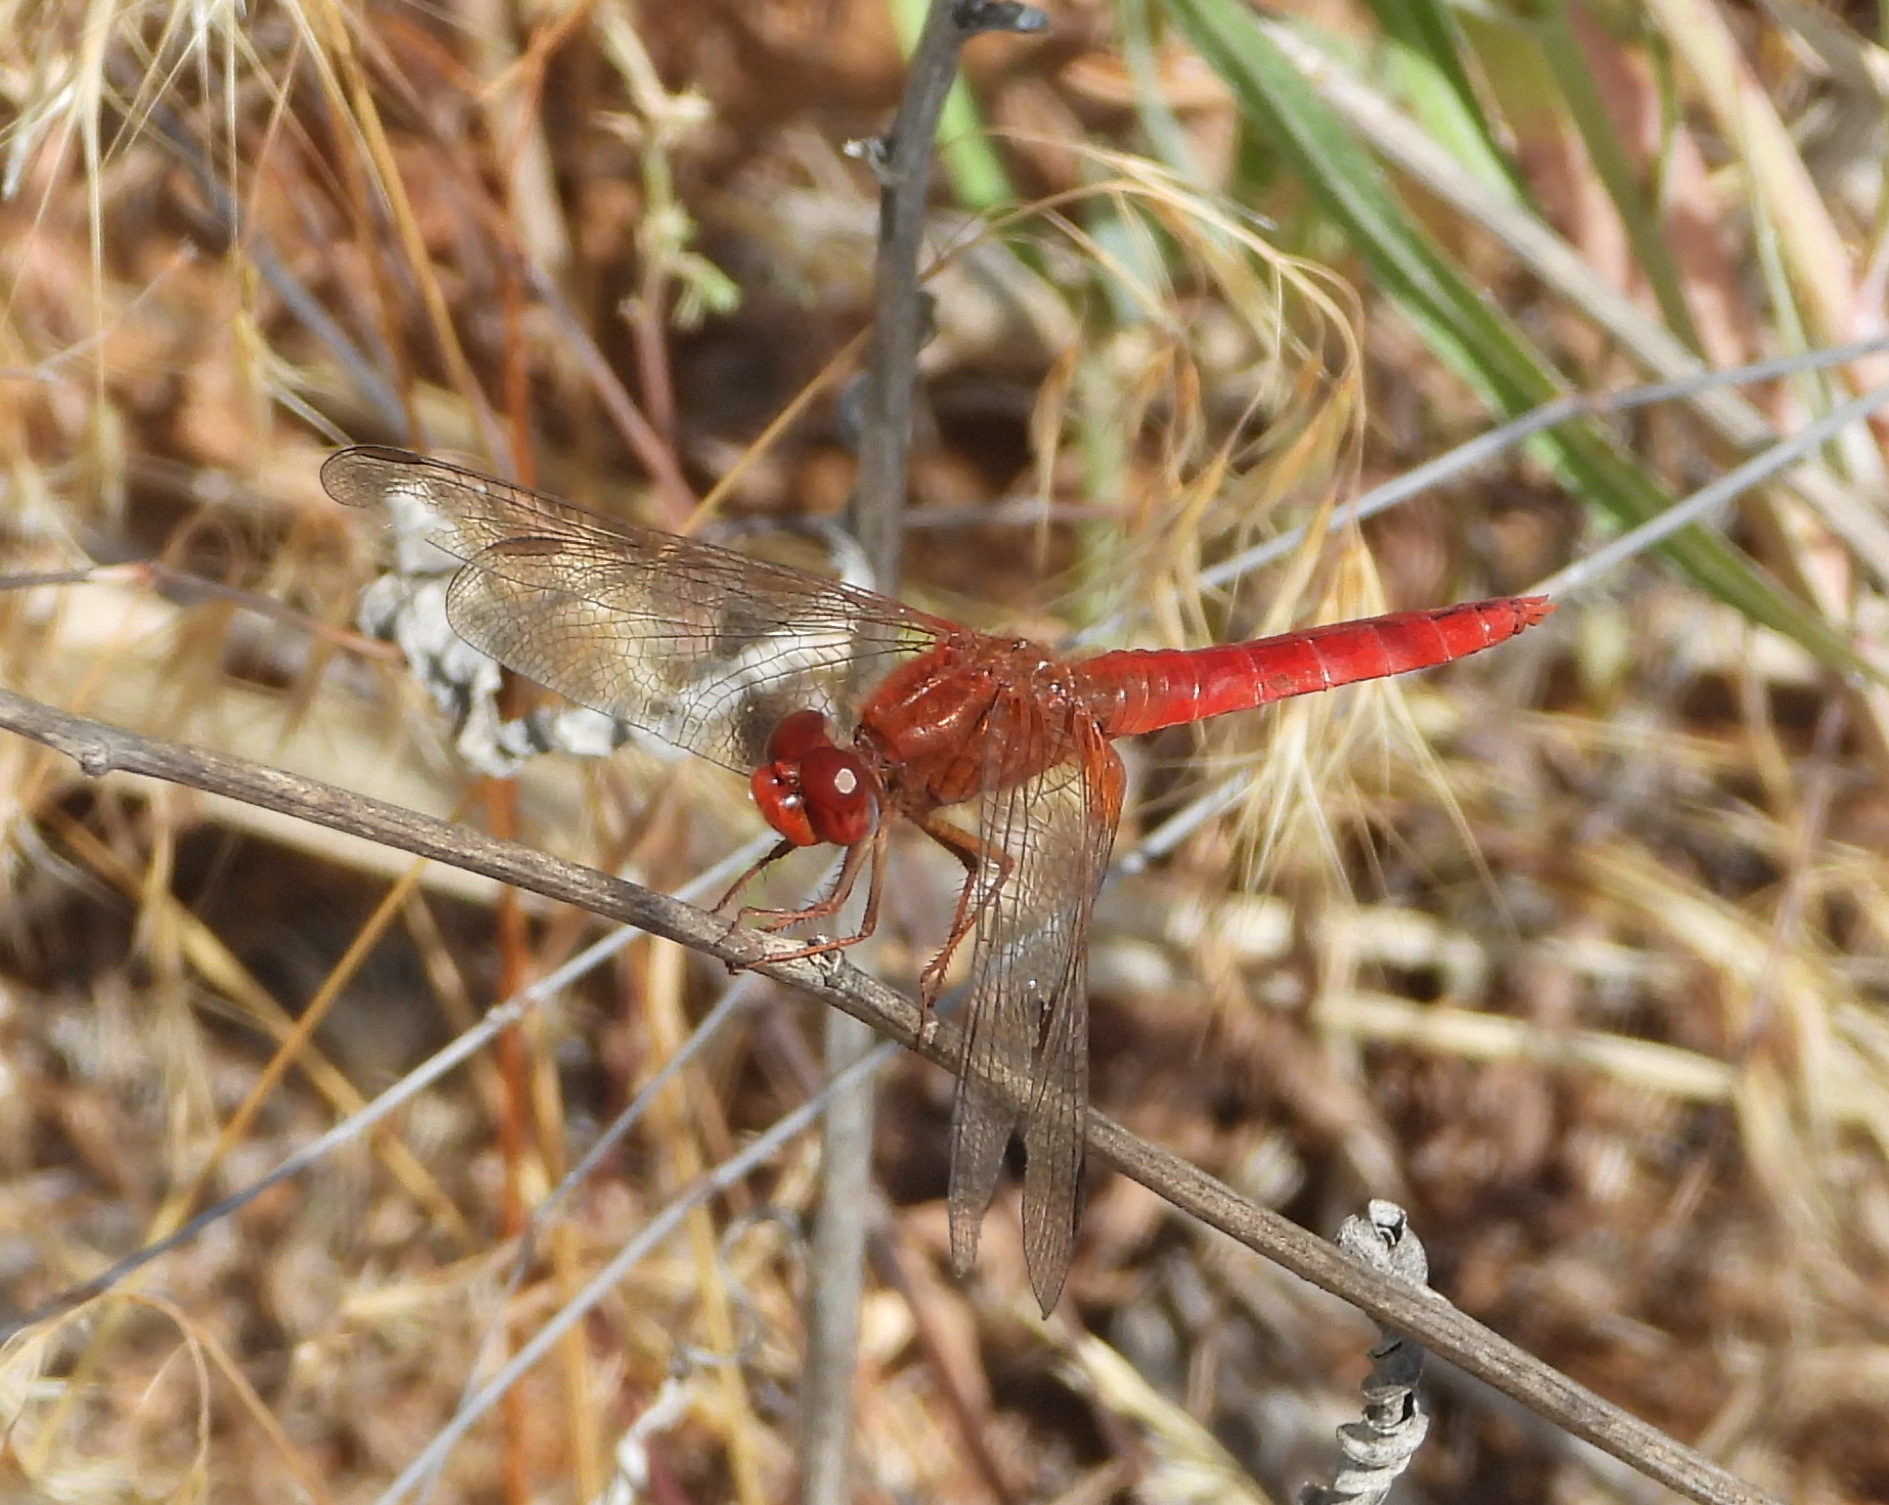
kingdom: Animalia
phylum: Arthropoda
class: Insecta
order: Odonata
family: Libellulidae
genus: Crocothemis
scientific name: Crocothemis erythraea
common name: Scarlet dragonfly
